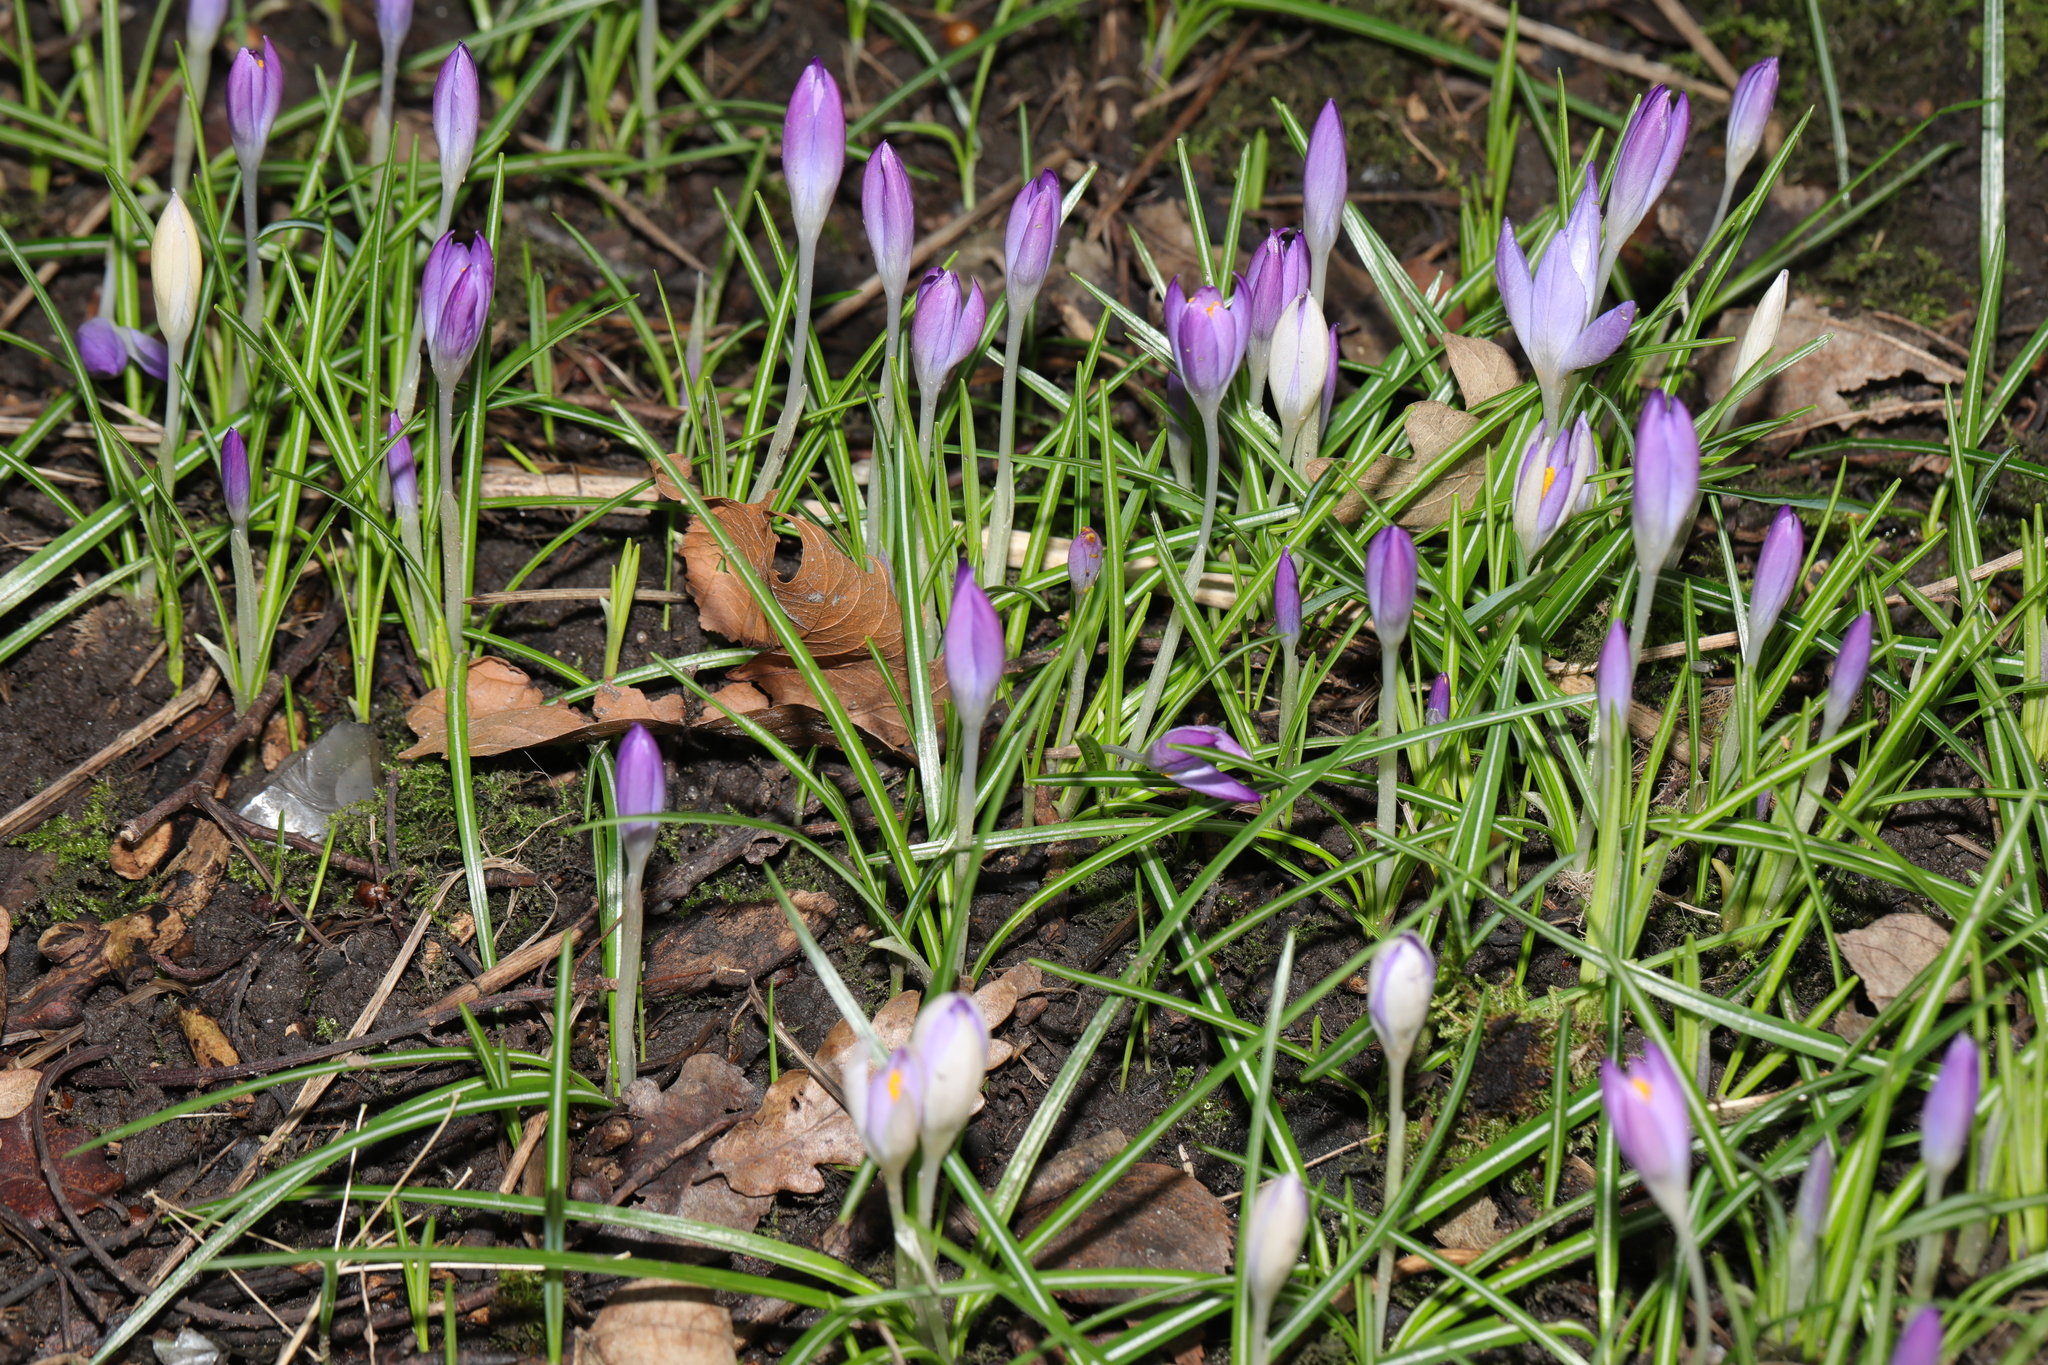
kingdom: Plantae
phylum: Tracheophyta
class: Liliopsida
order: Asparagales
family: Iridaceae
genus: Crocus
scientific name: Crocus tommasinianus
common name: Early crocus
